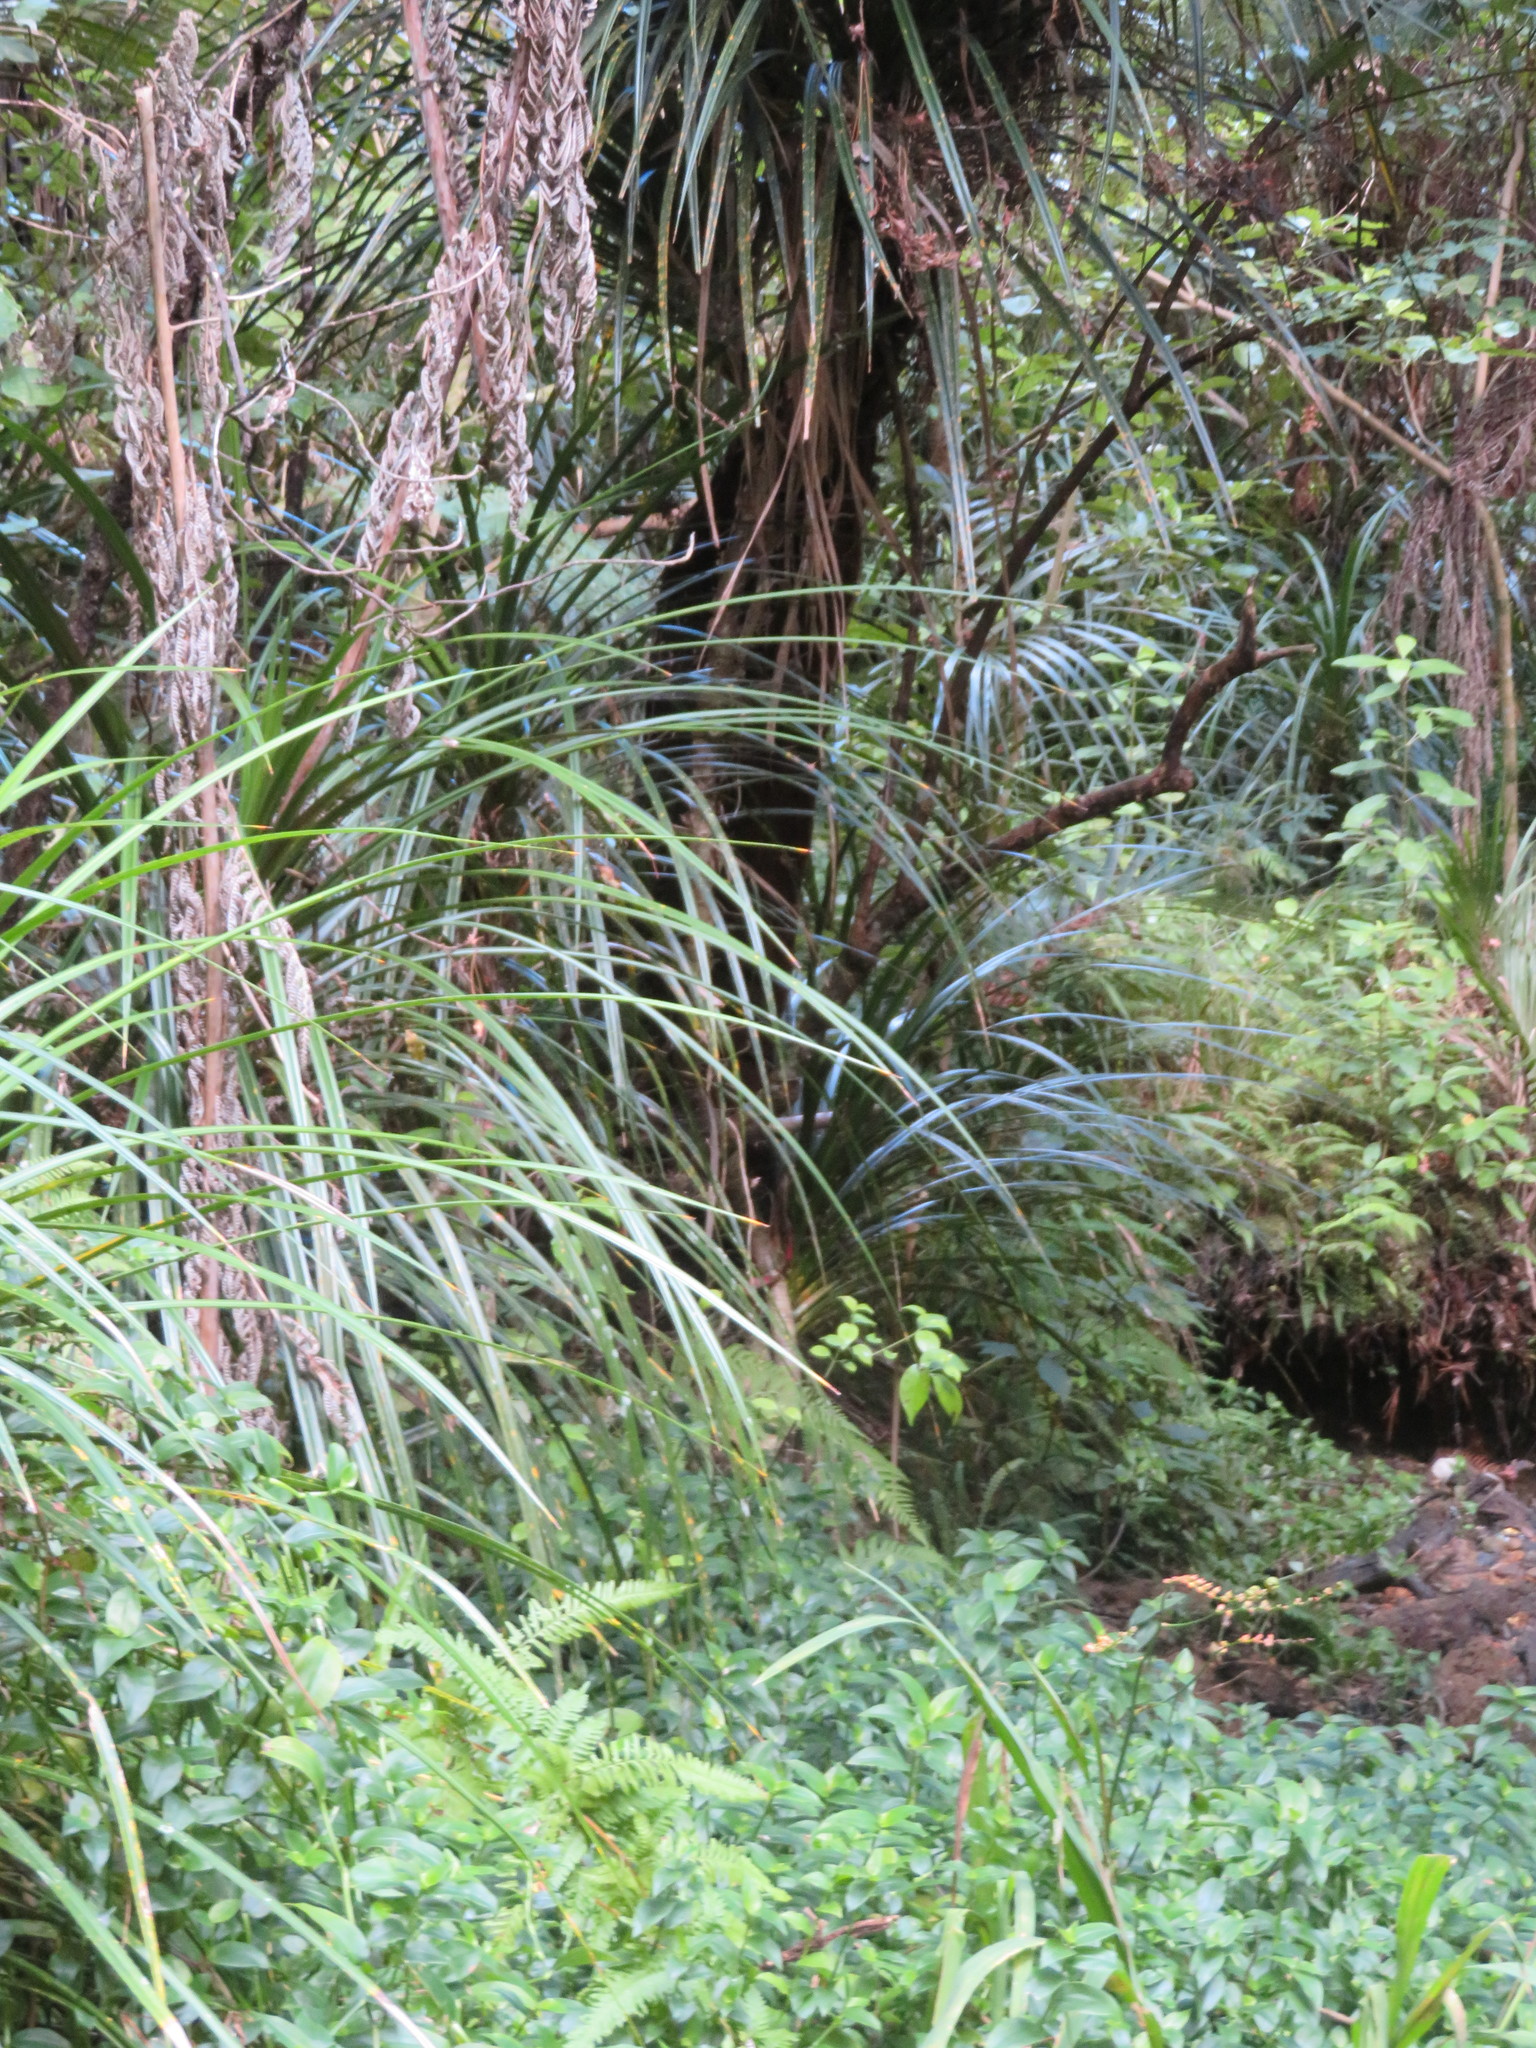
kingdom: Plantae
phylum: Tracheophyta
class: Magnoliopsida
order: Gentianales
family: Loganiaceae
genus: Geniostoma
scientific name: Geniostoma ligustrifolium
